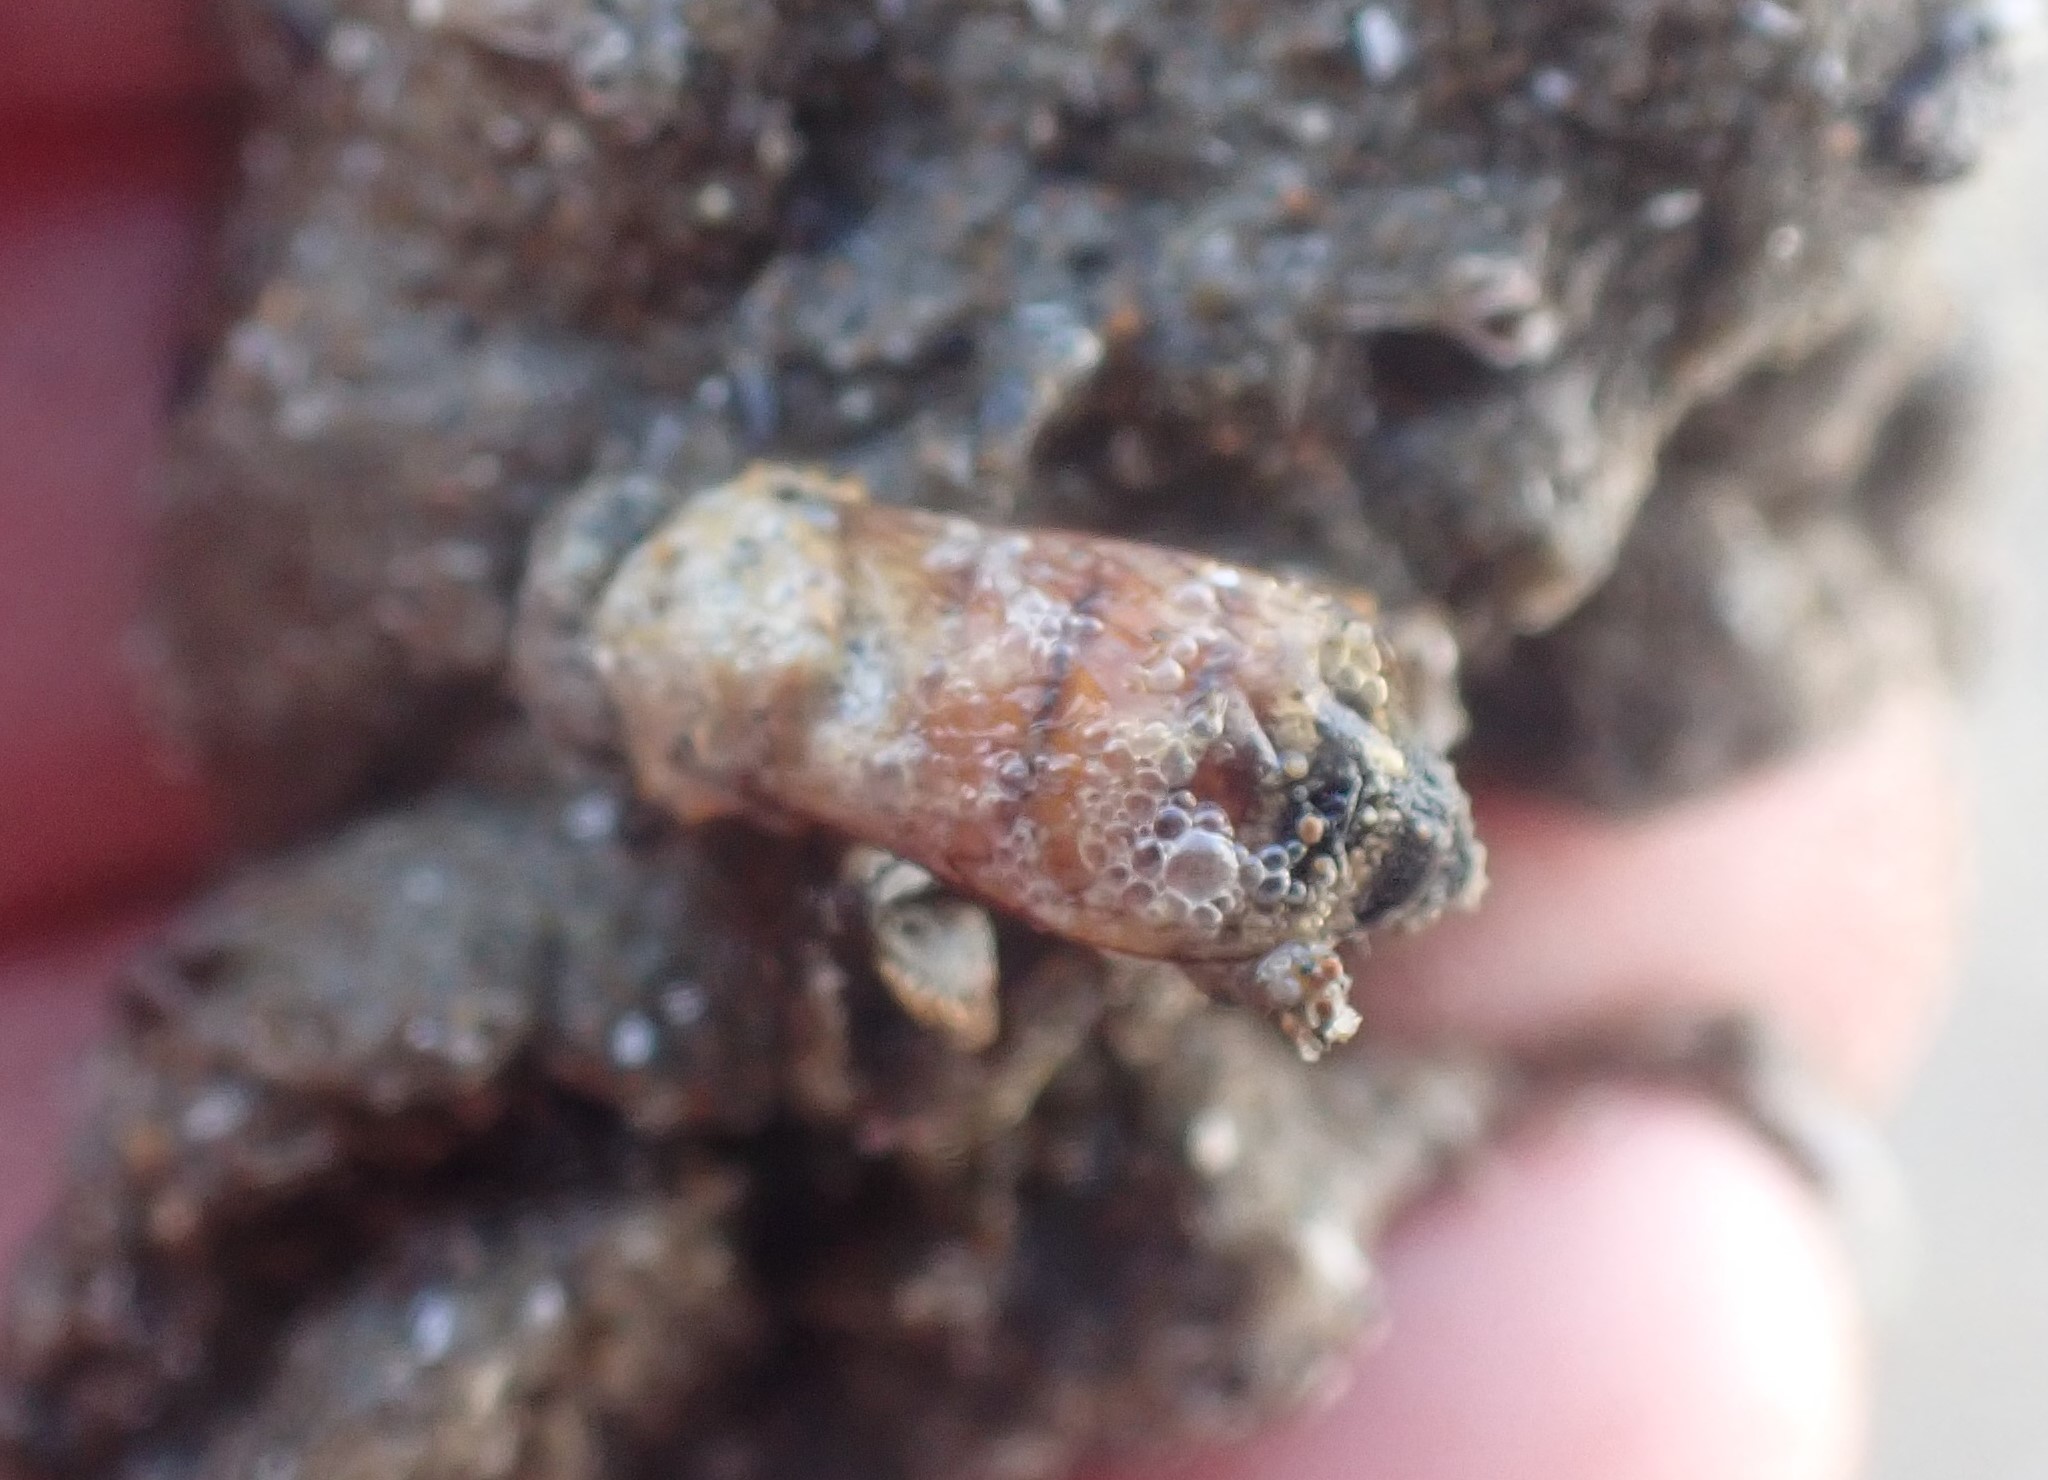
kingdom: Animalia
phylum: Arthropoda
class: Insecta
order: Hymenoptera
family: Apidae
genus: Apis
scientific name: Apis mellifera
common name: Honey bee
